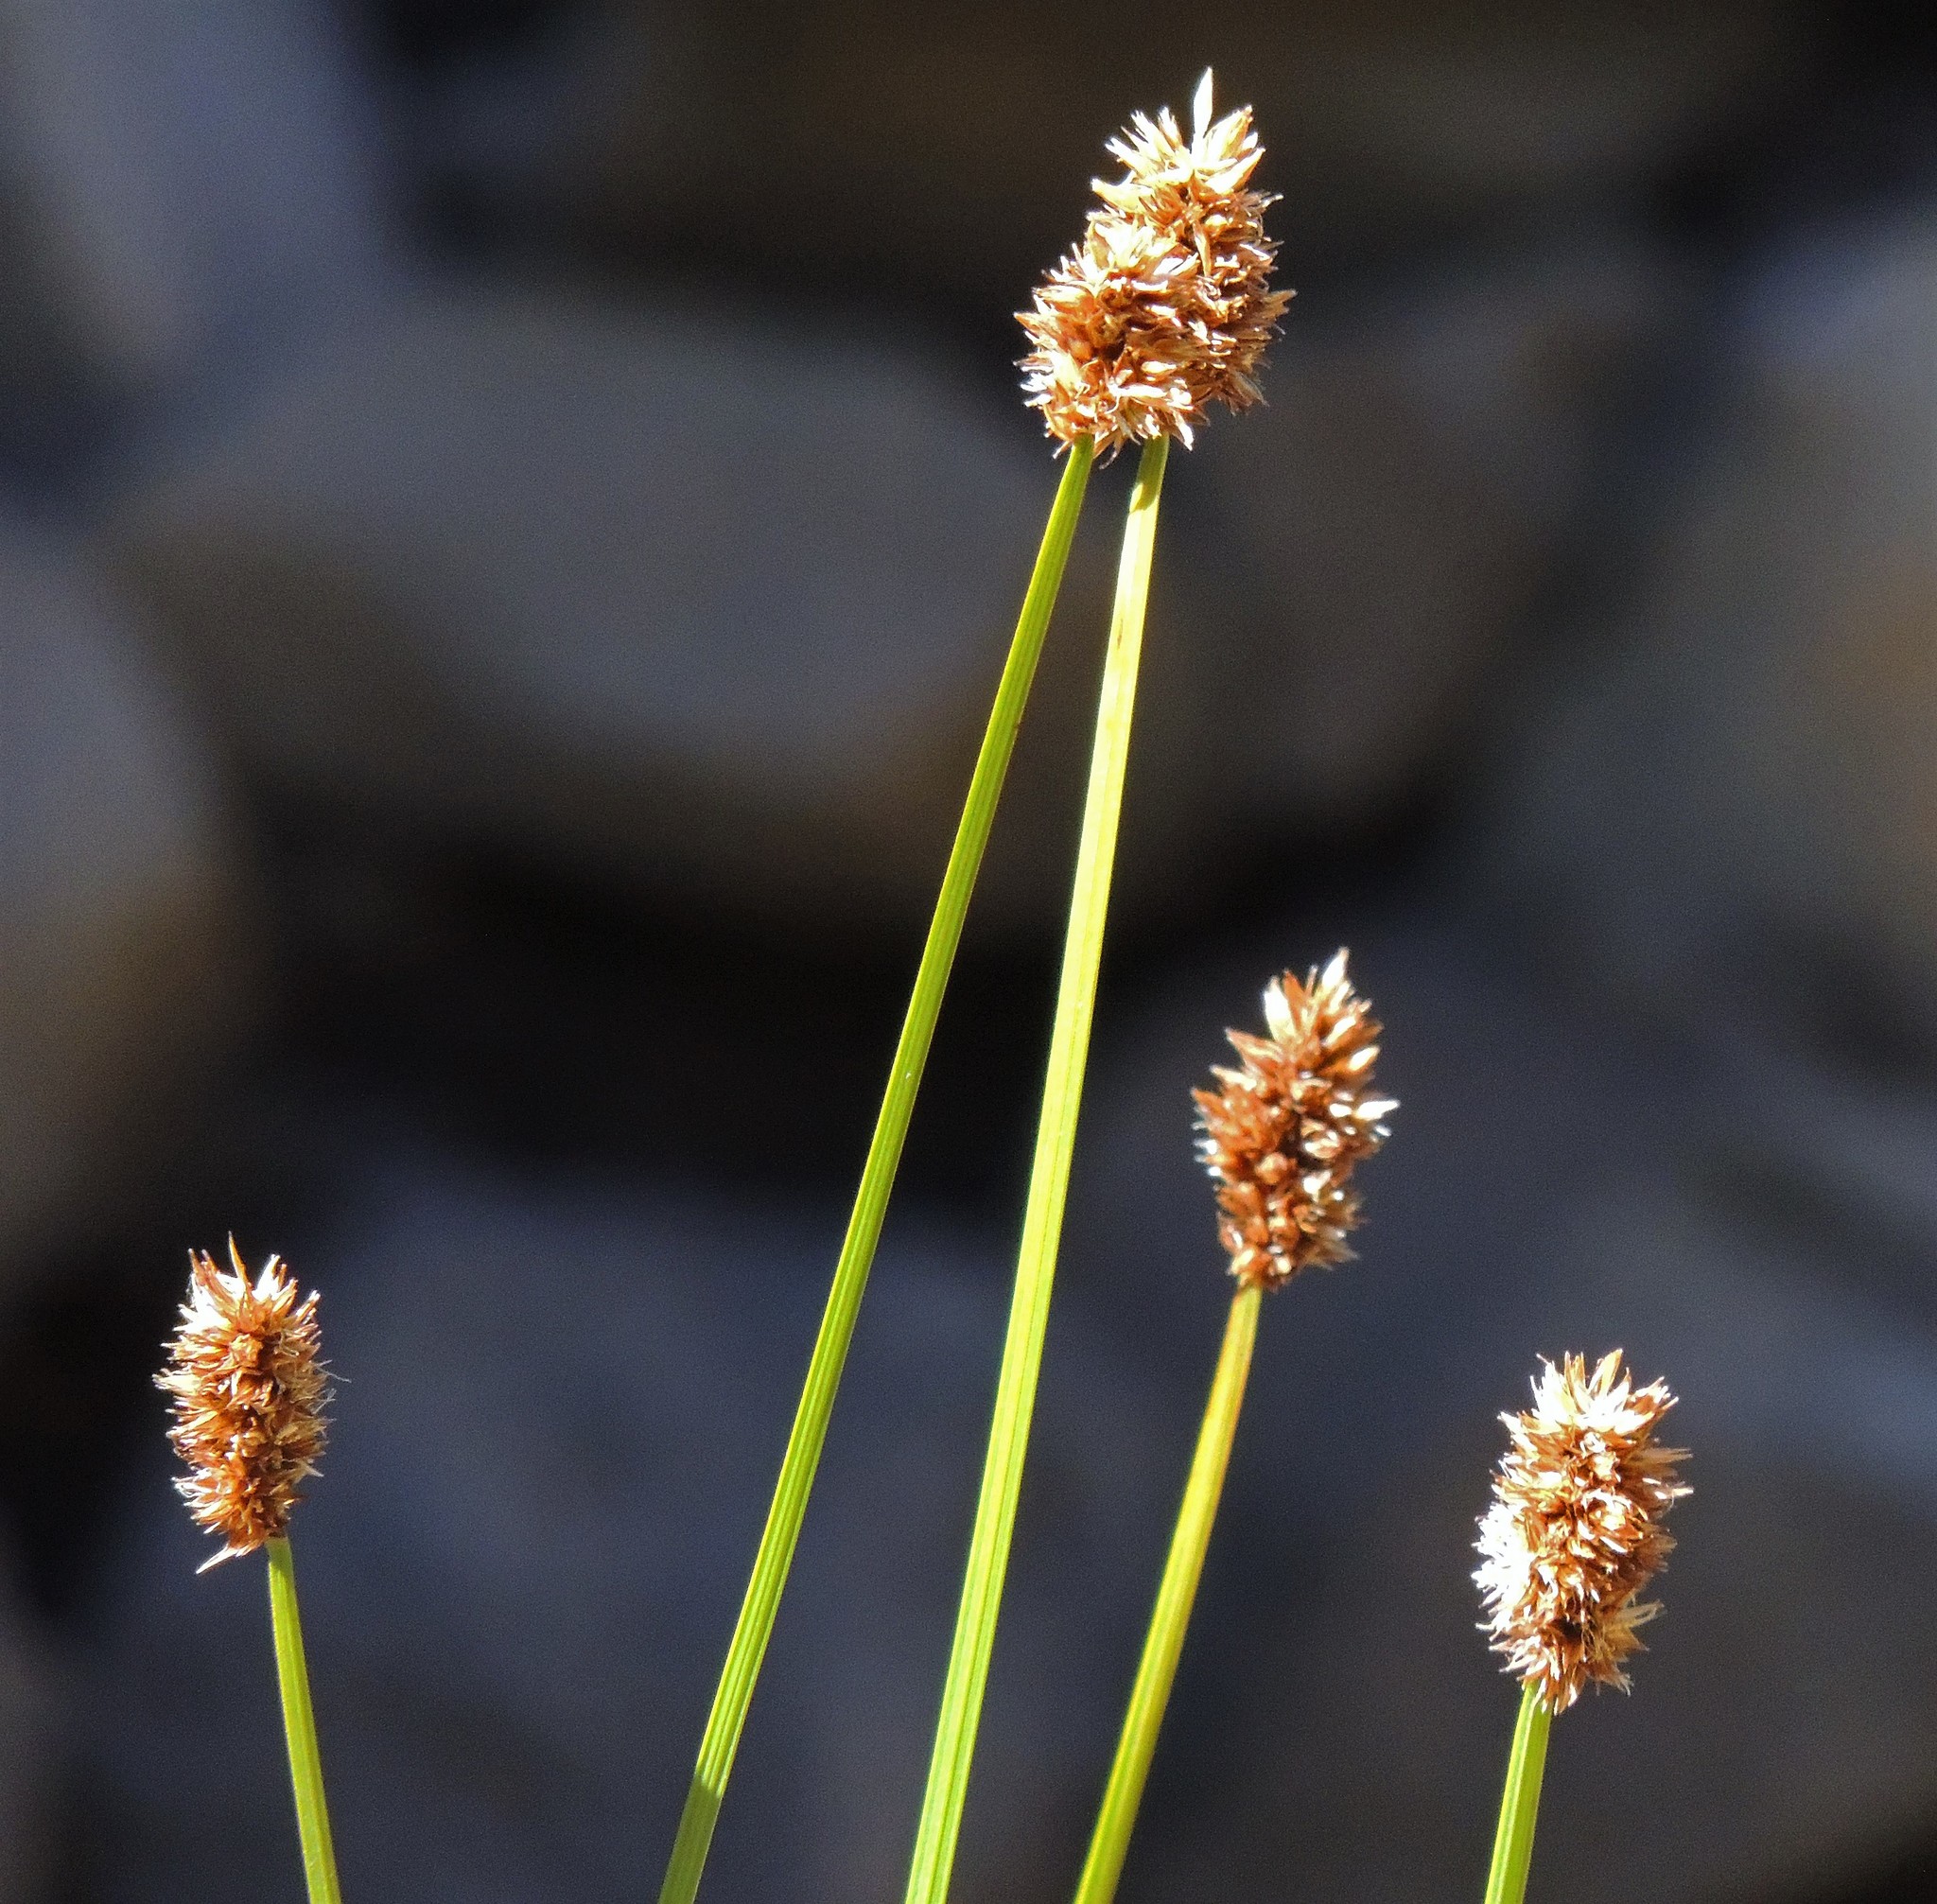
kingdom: Plantae
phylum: Tracheophyta
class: Liliopsida
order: Poales
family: Cyperaceae
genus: Carex
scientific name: Carex firmicaulis
